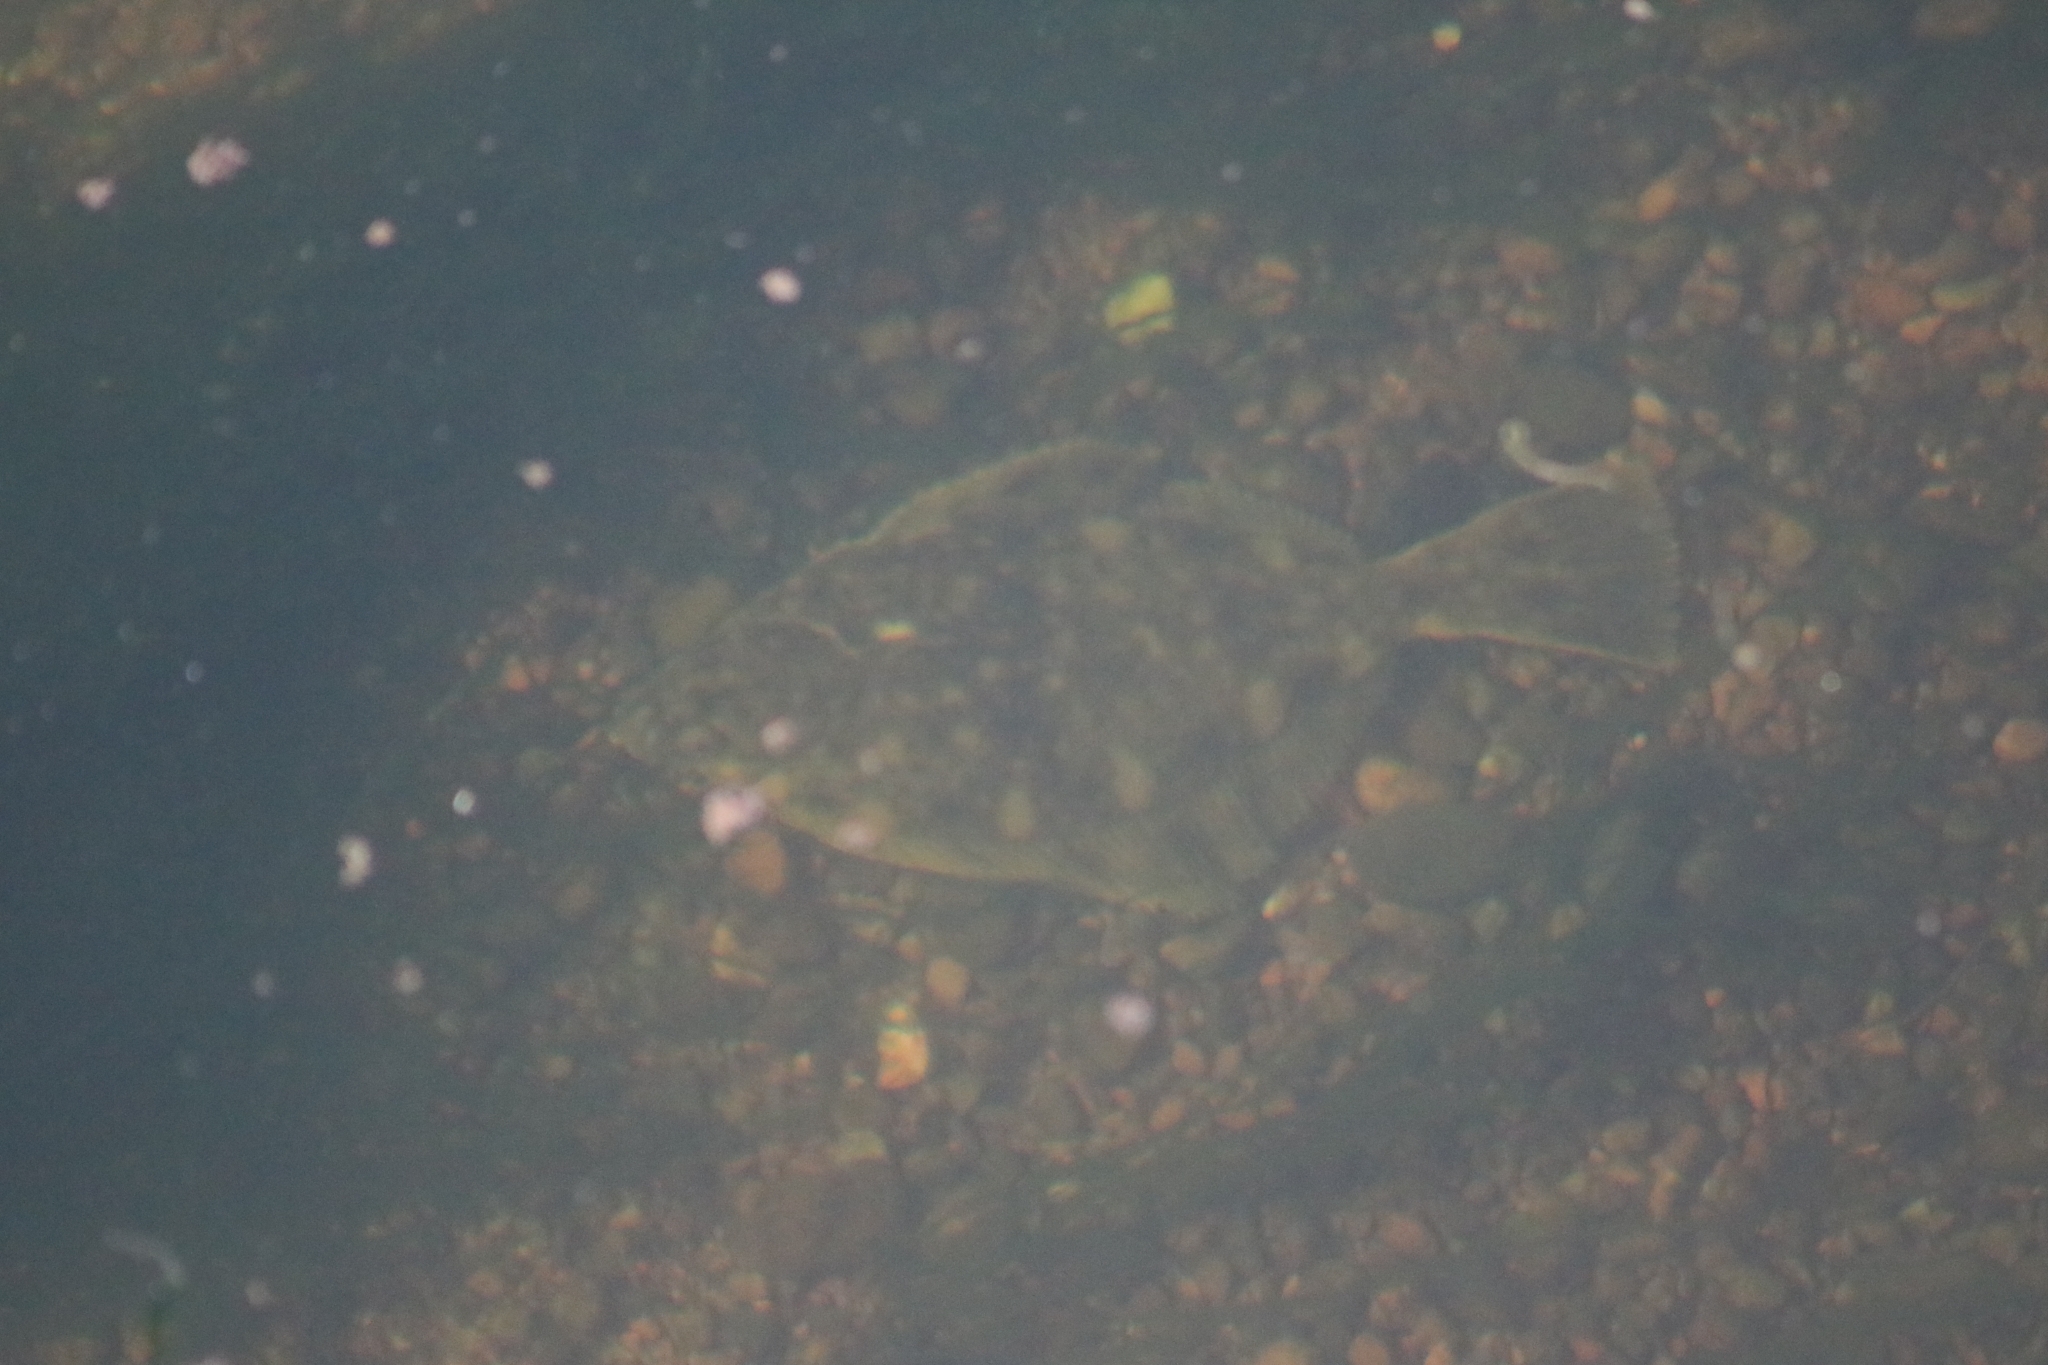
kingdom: Animalia
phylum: Chordata
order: Pleuronectiformes
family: Pleuronectidae
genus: Platichthys
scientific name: Platichthys flesus
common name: European flounder
